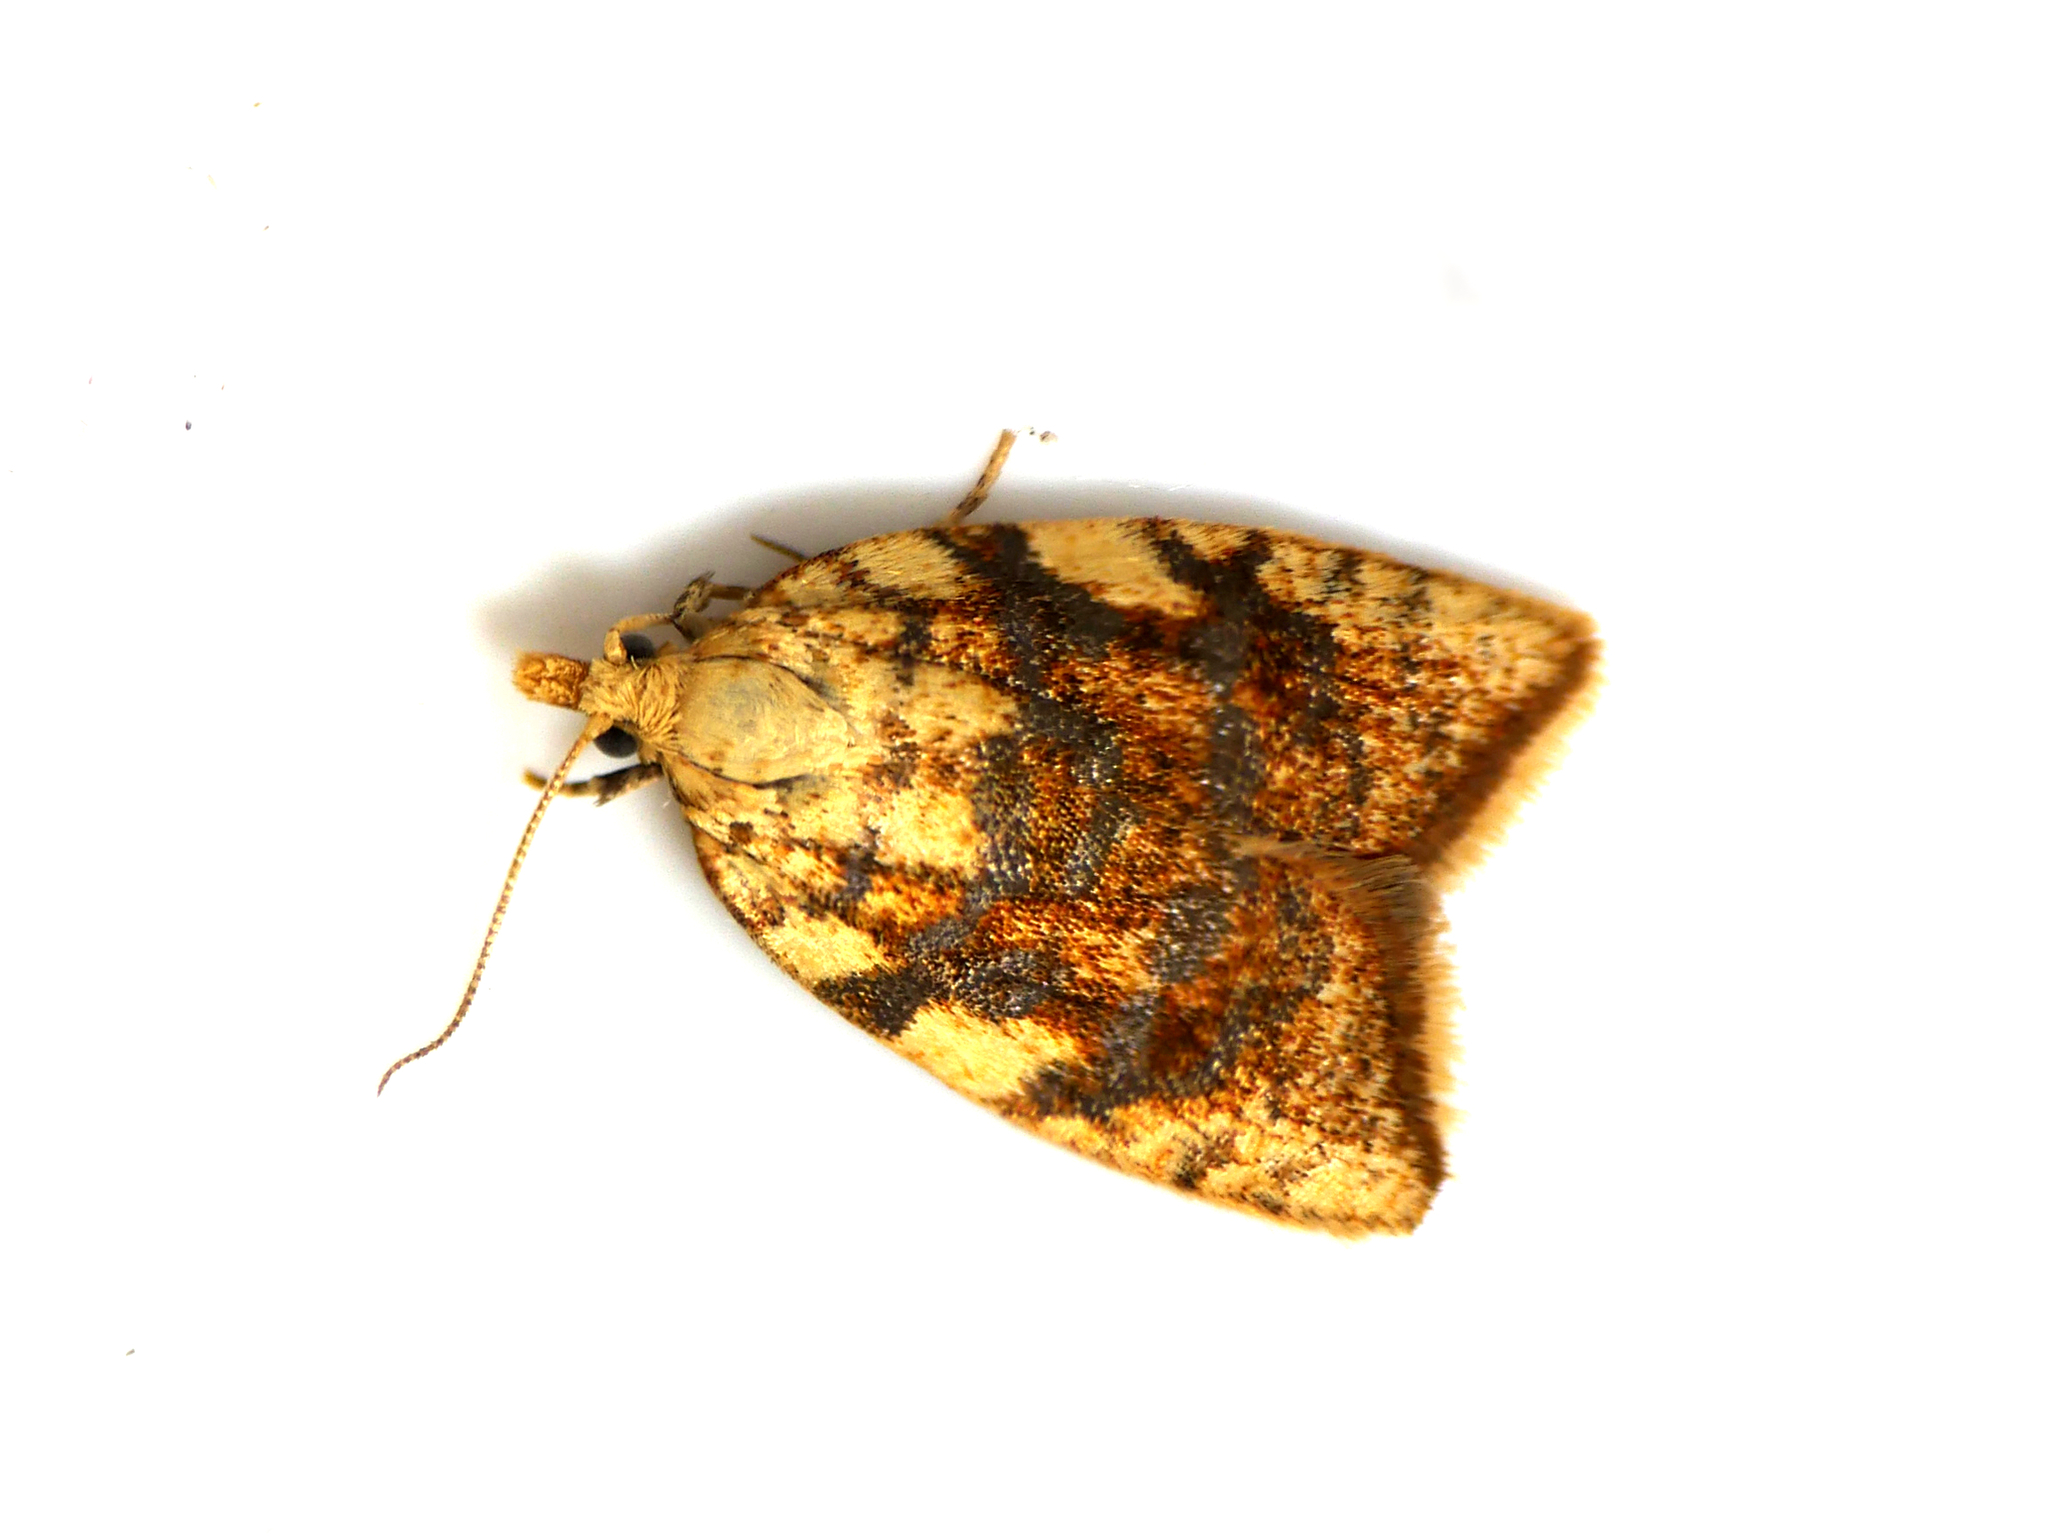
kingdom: Animalia
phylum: Arthropoda
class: Insecta
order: Lepidoptera
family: Tortricidae
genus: Aleimma
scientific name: Aleimma loeflingiana
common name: Yellow oak button
